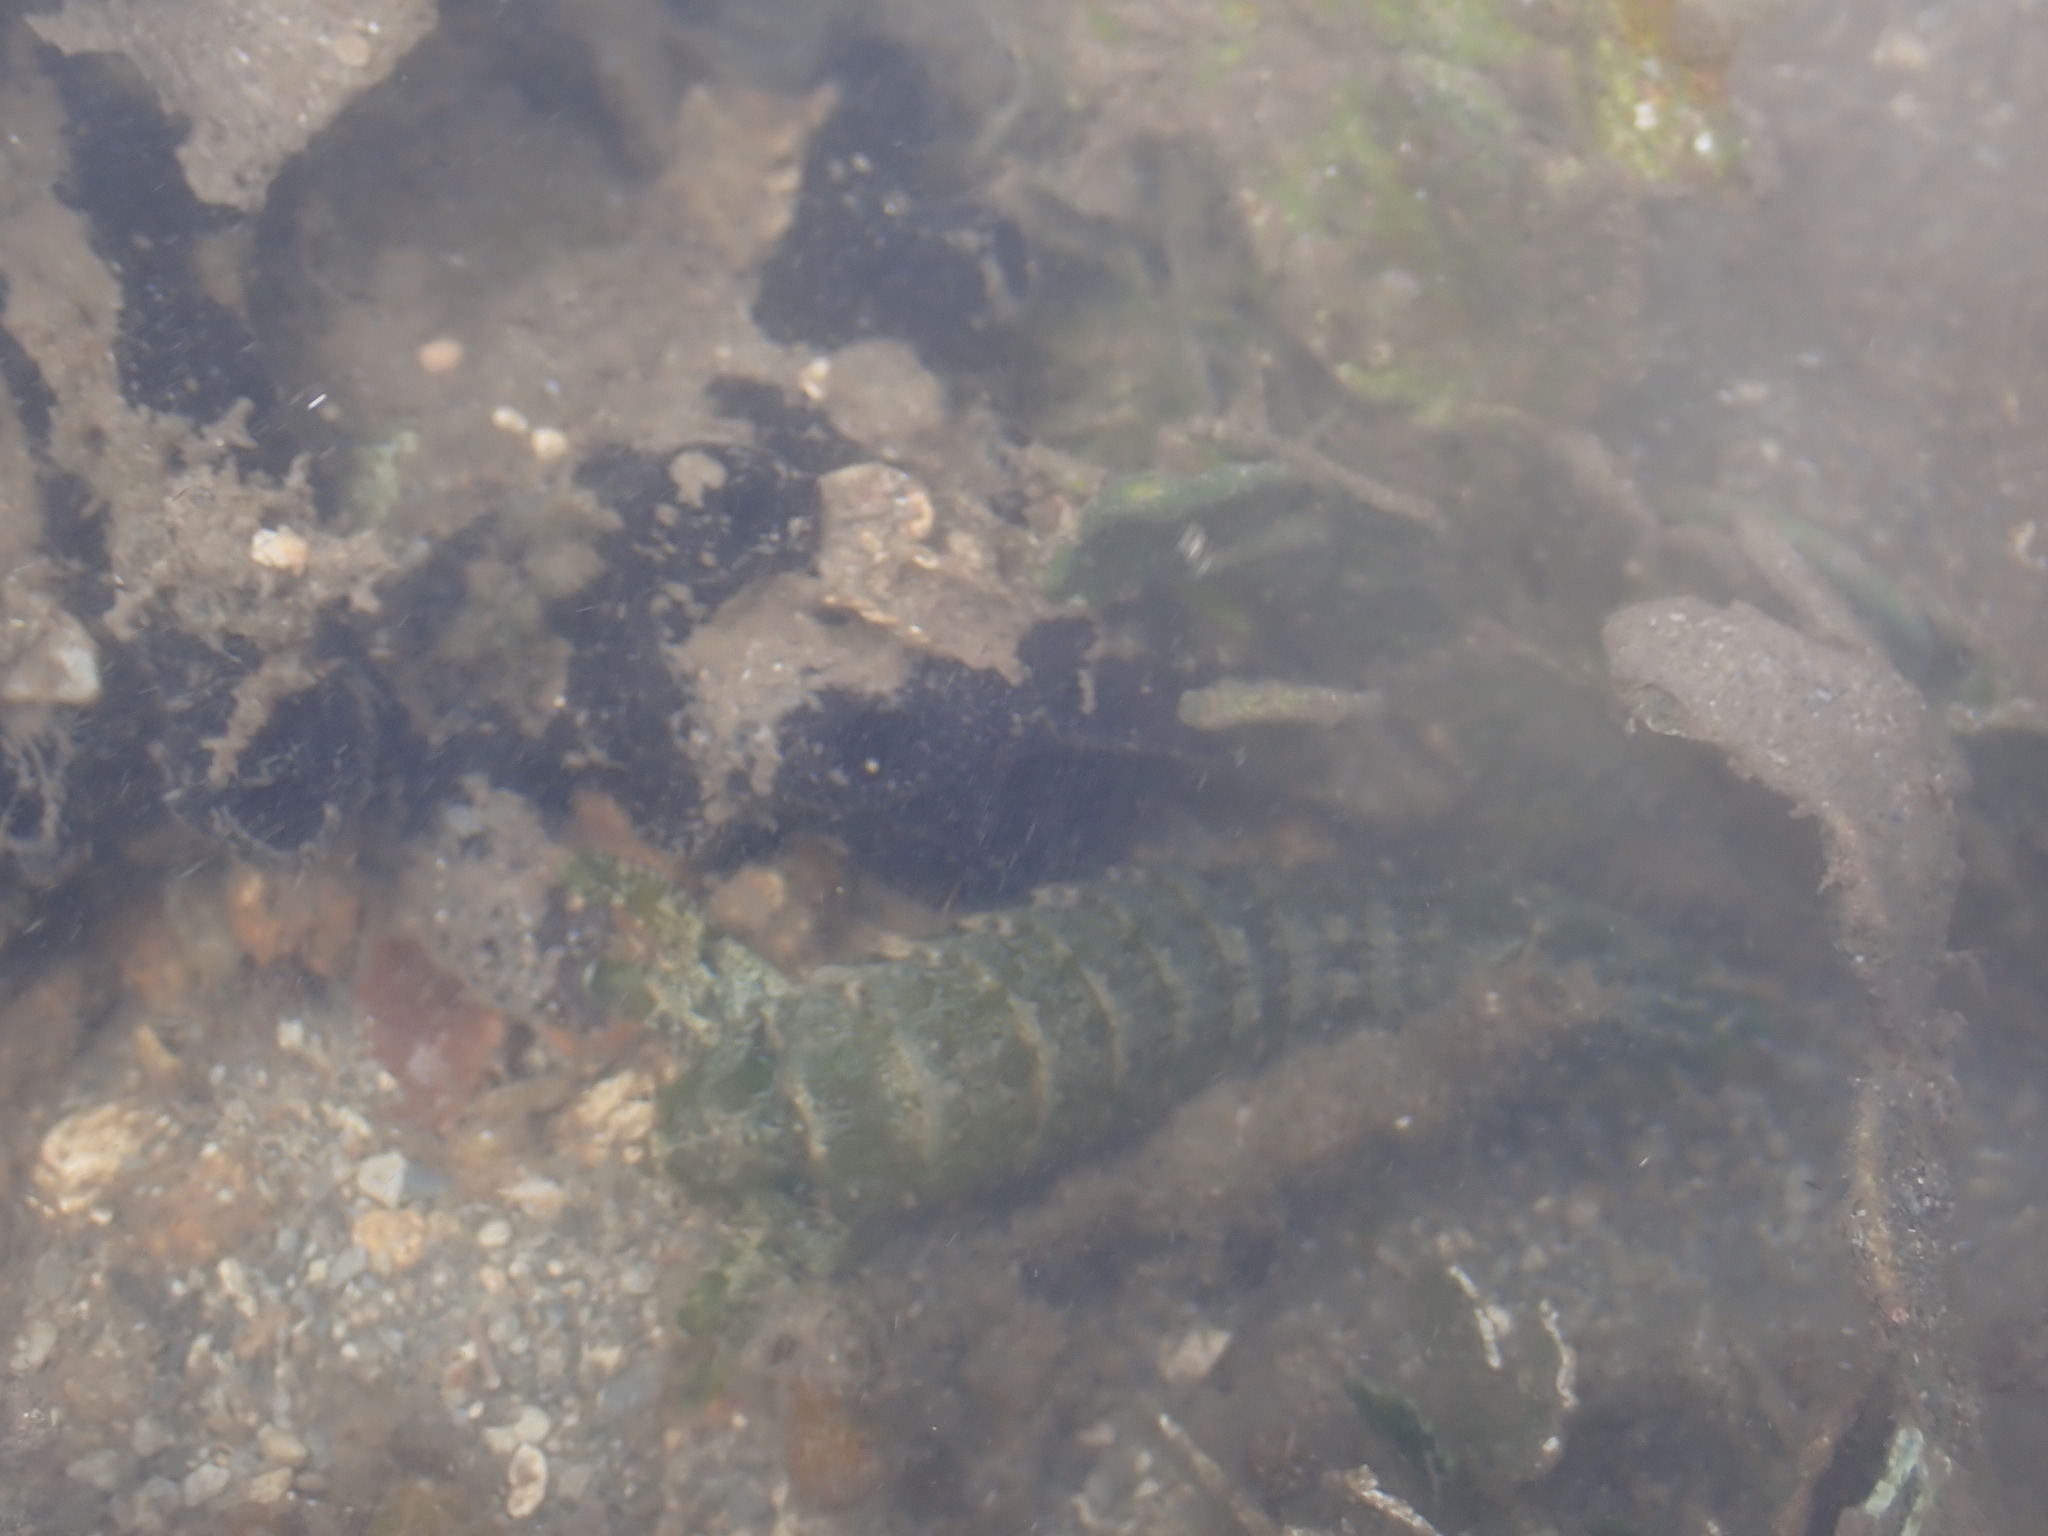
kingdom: Animalia
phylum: Arthropoda
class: Malacostraca
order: Stomatopoda
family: Pseudosquillidae
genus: Pseudosquilla
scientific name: Pseudosquilla ciliata
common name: Ciliated false squilla
